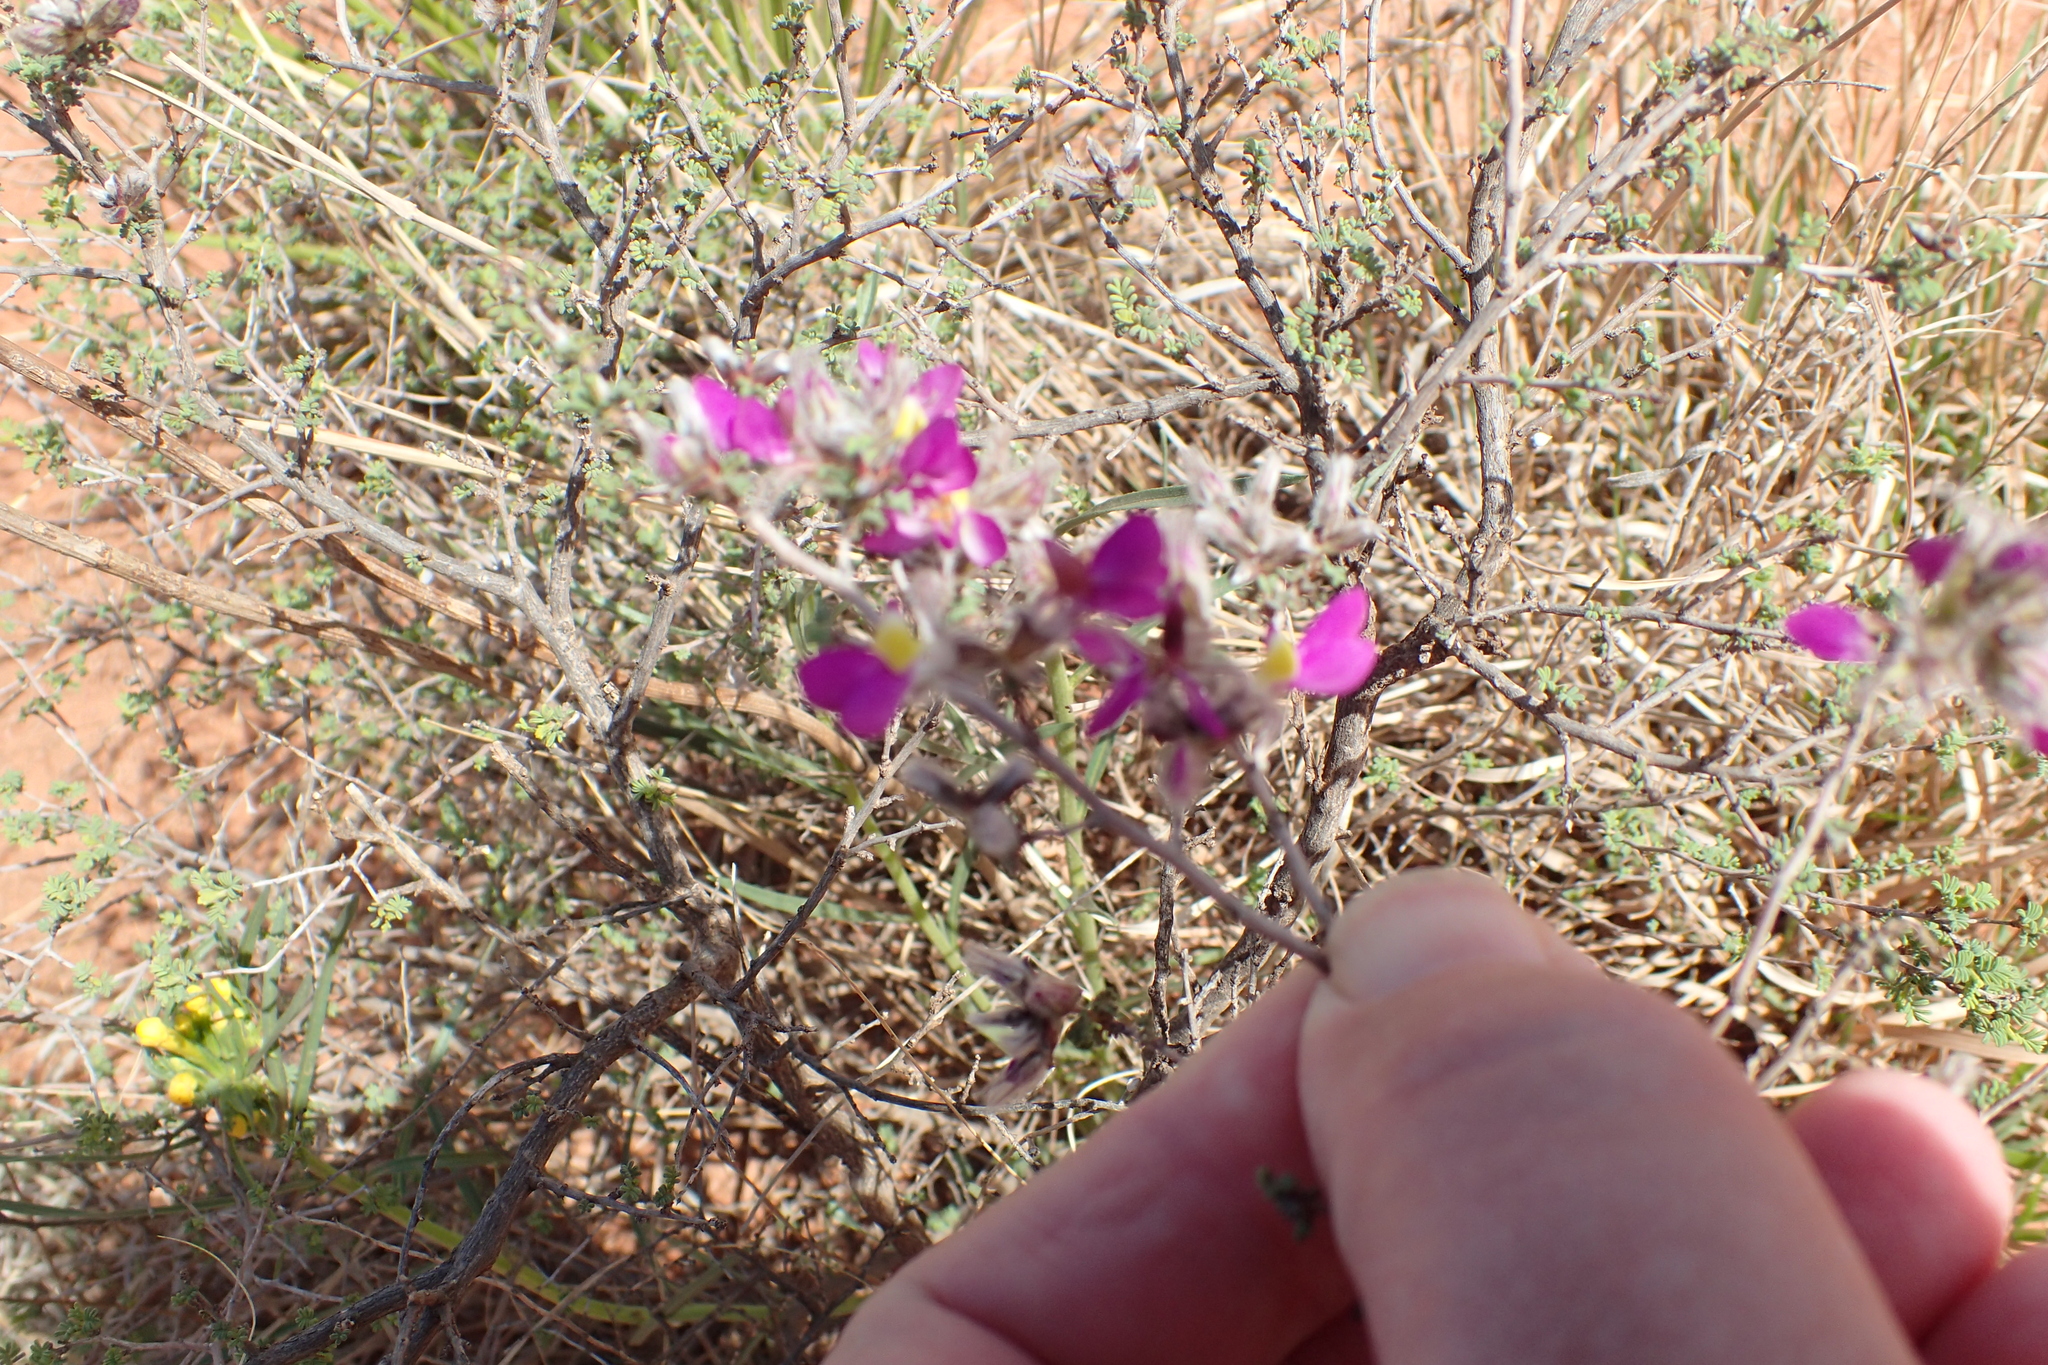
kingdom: Plantae
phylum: Tracheophyta
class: Magnoliopsida
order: Fabales
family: Fabaceae
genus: Dalea
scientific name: Dalea formosa
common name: Feather-plume dalea
